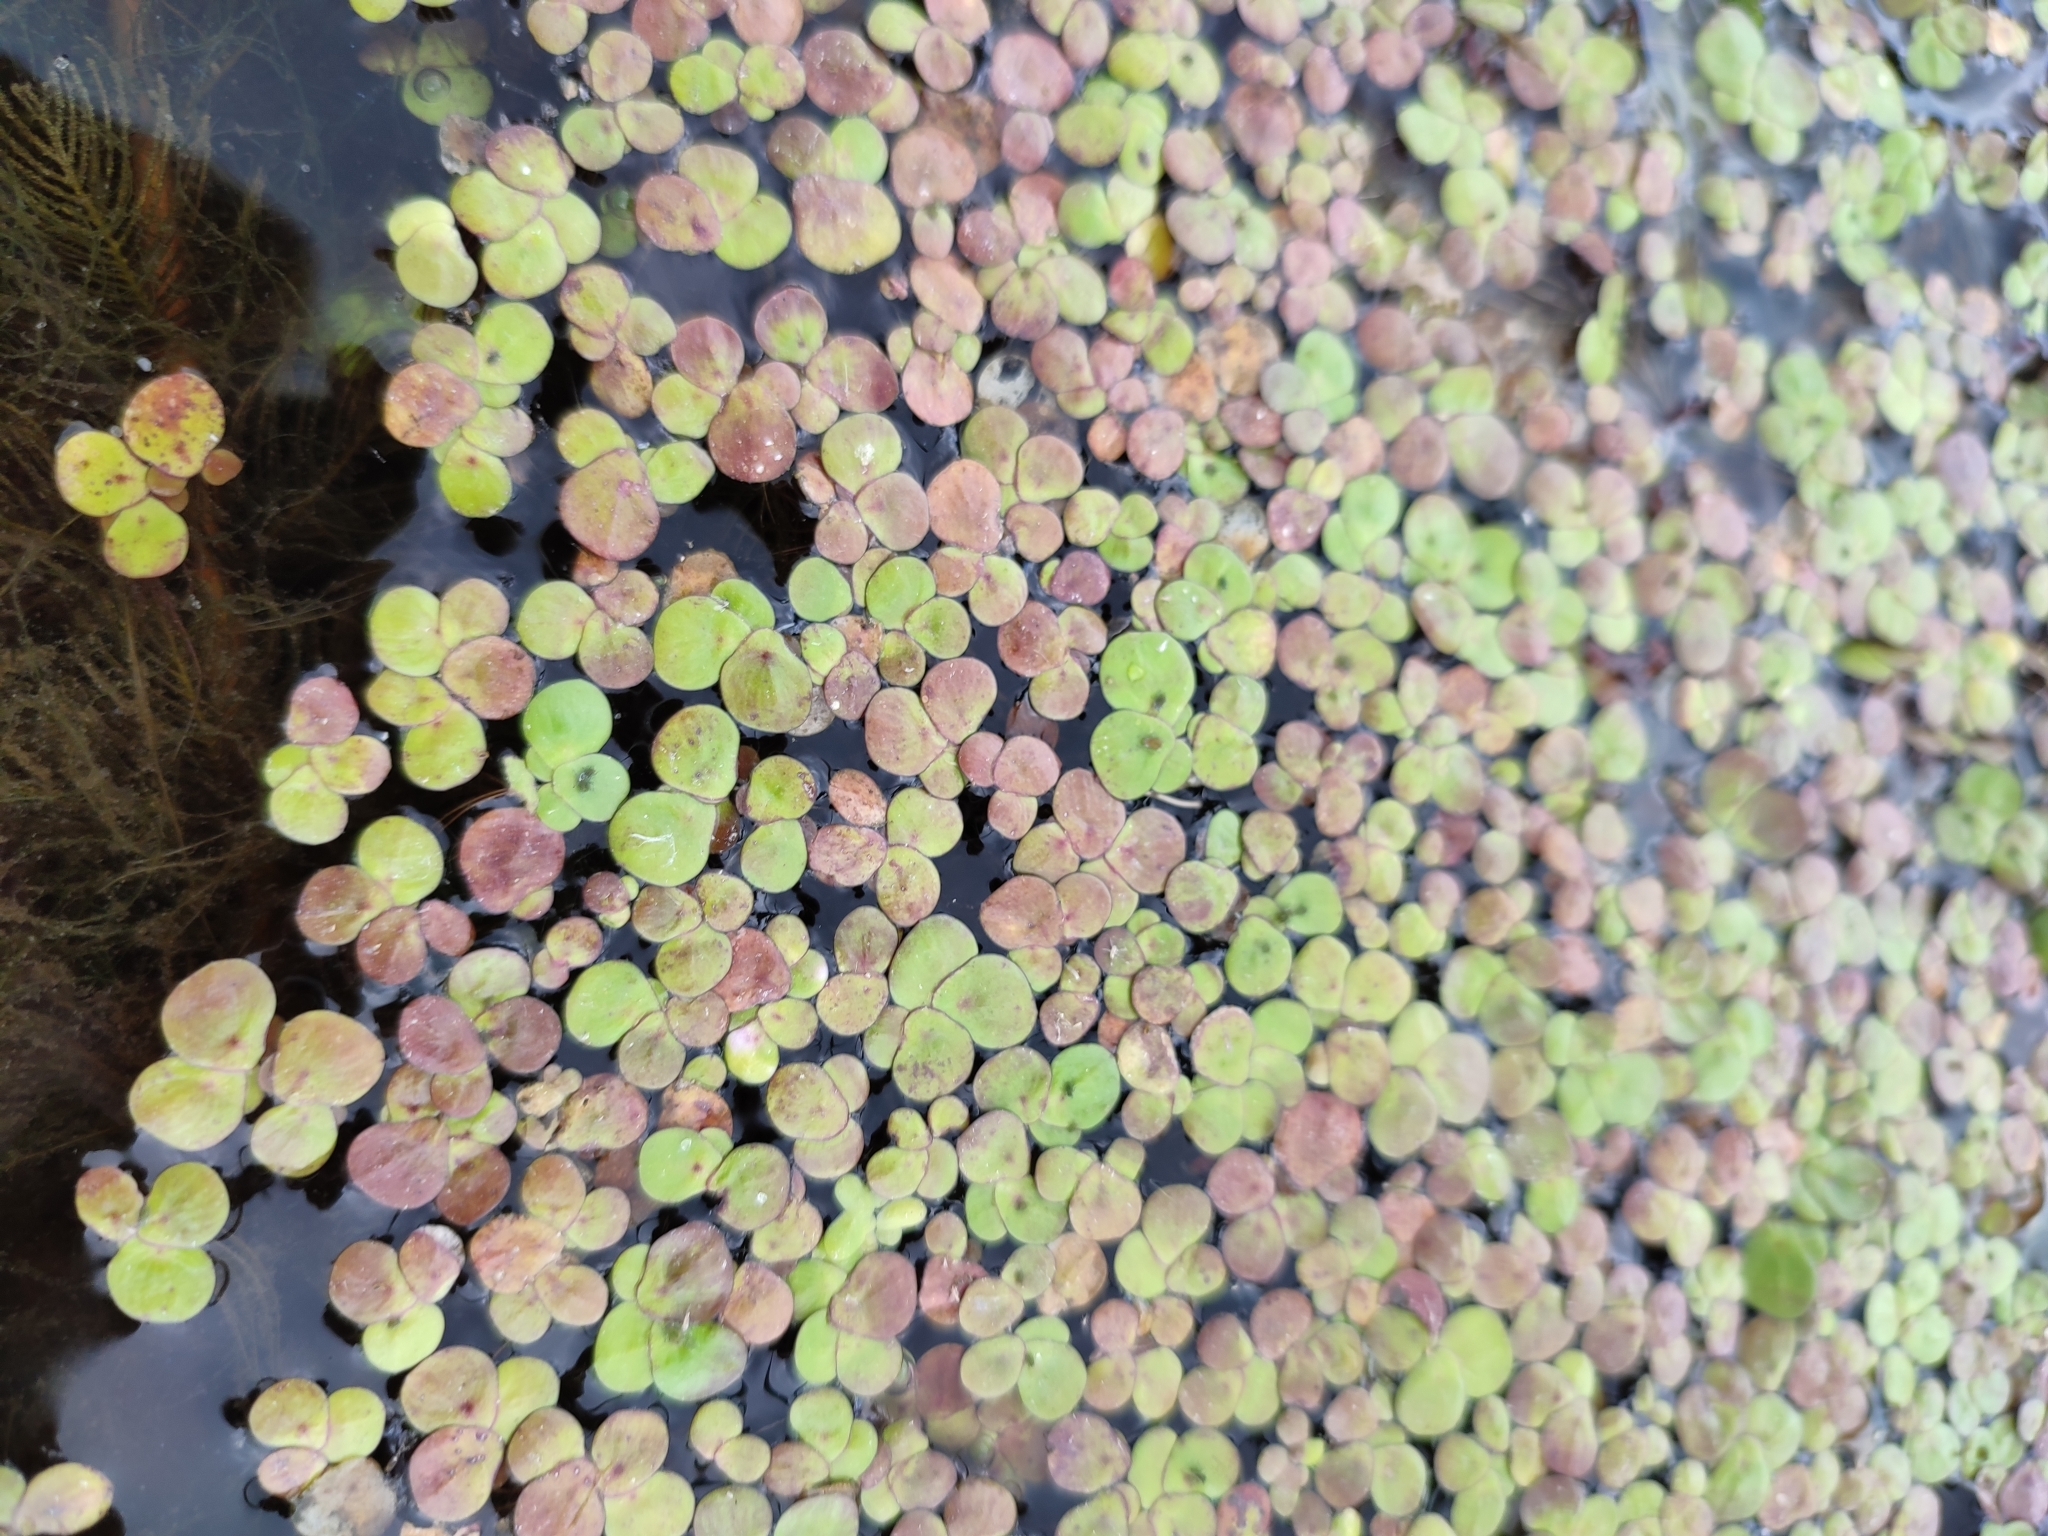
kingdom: Plantae
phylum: Tracheophyta
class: Liliopsida
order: Alismatales
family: Araceae
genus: Spirodela
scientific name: Spirodela polyrhiza
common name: Great duckweed
